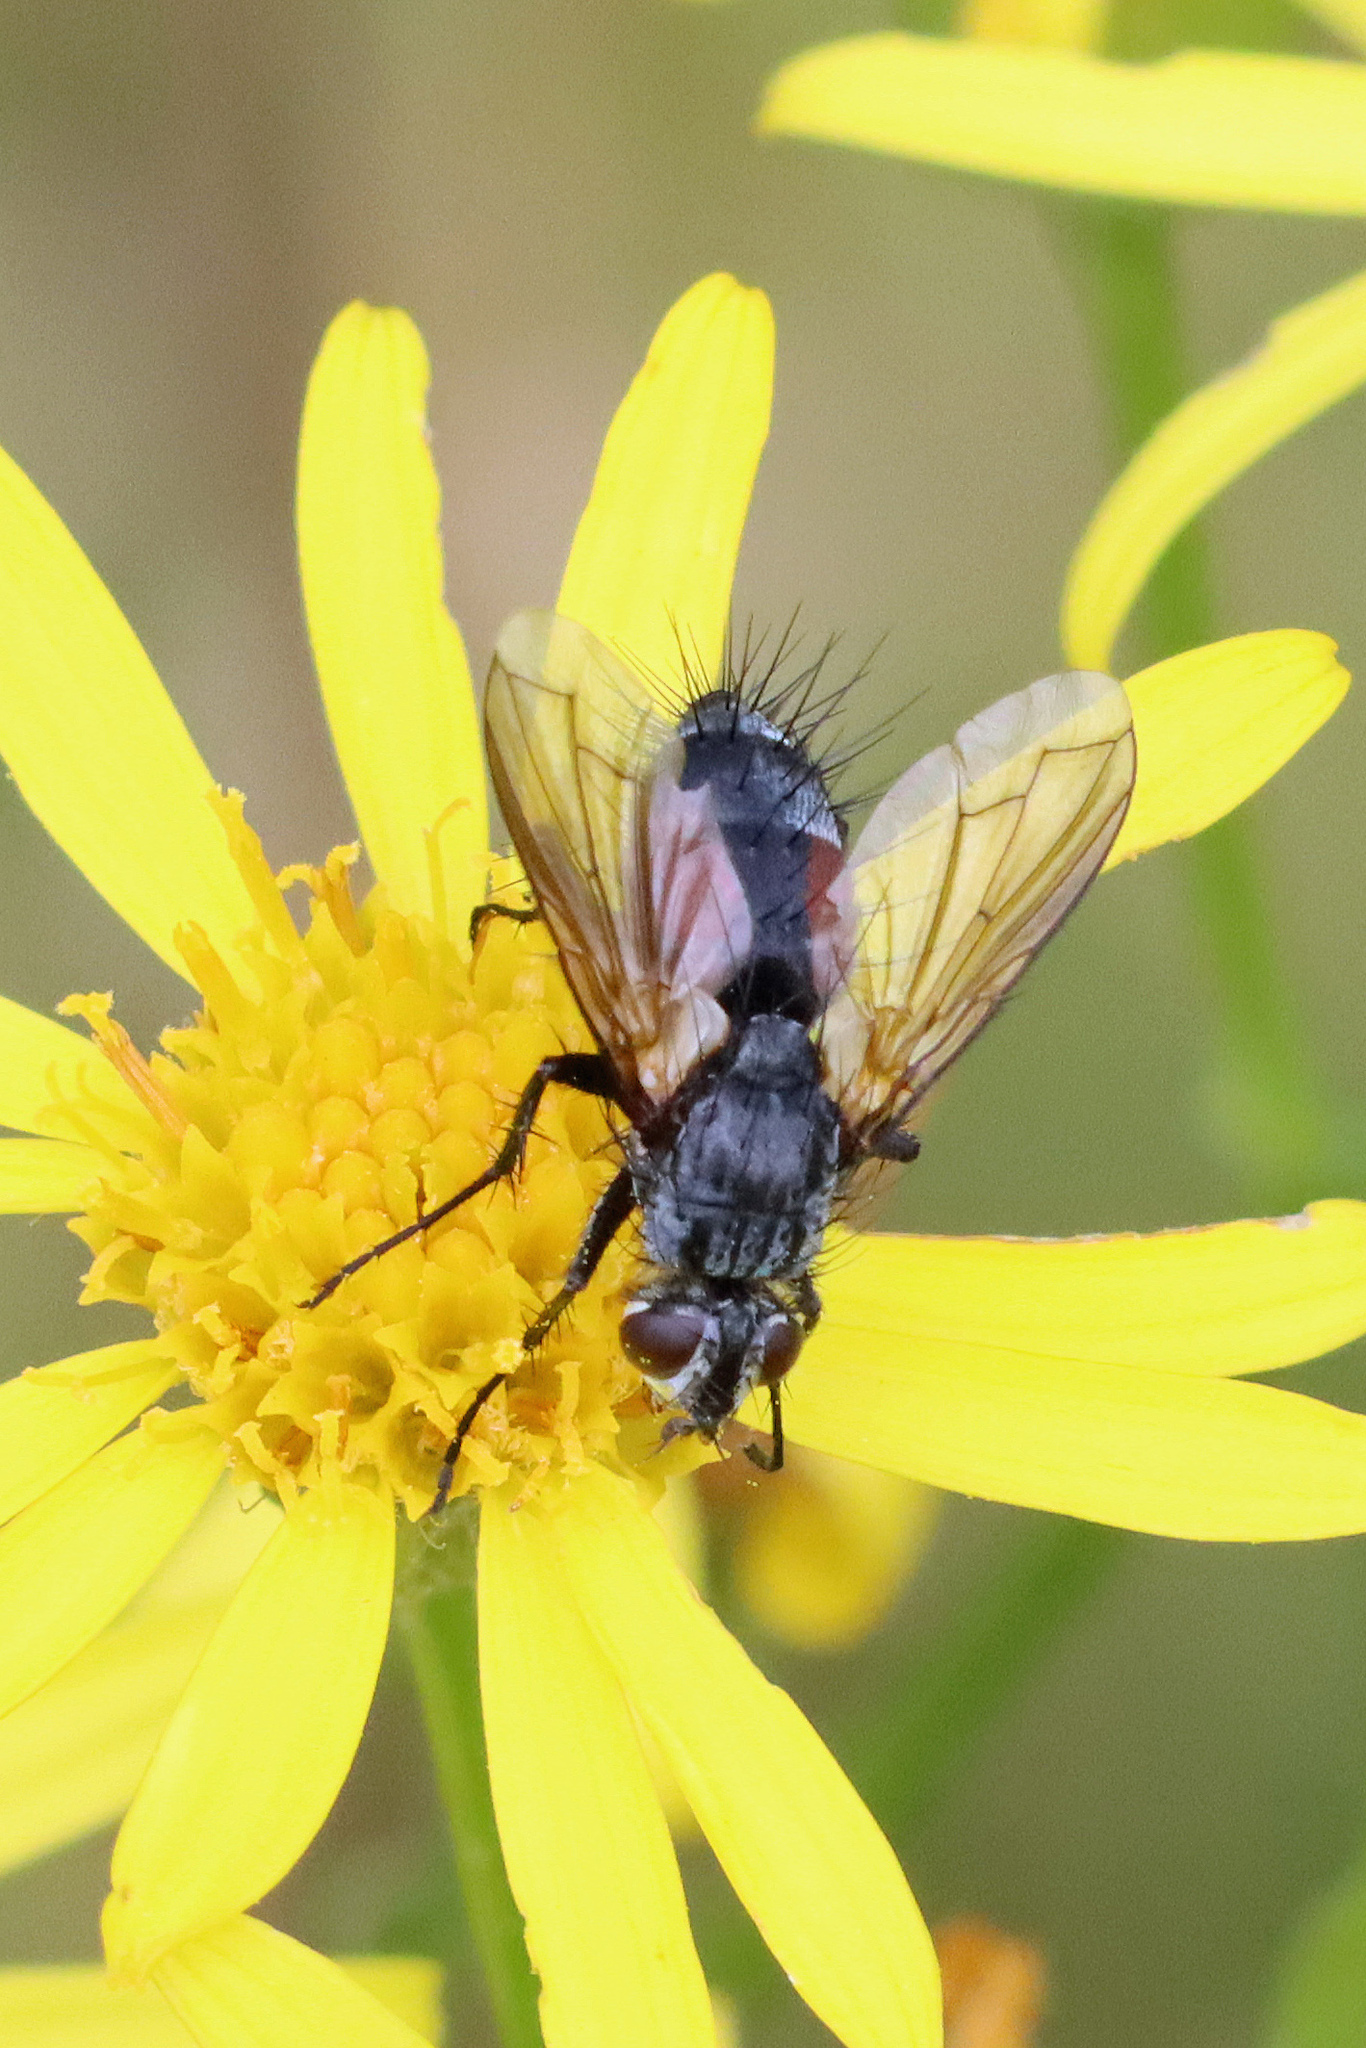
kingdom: Animalia
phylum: Arthropoda
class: Insecta
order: Diptera
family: Tachinidae
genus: Eriothrix
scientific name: Eriothrix rufomaculatus
